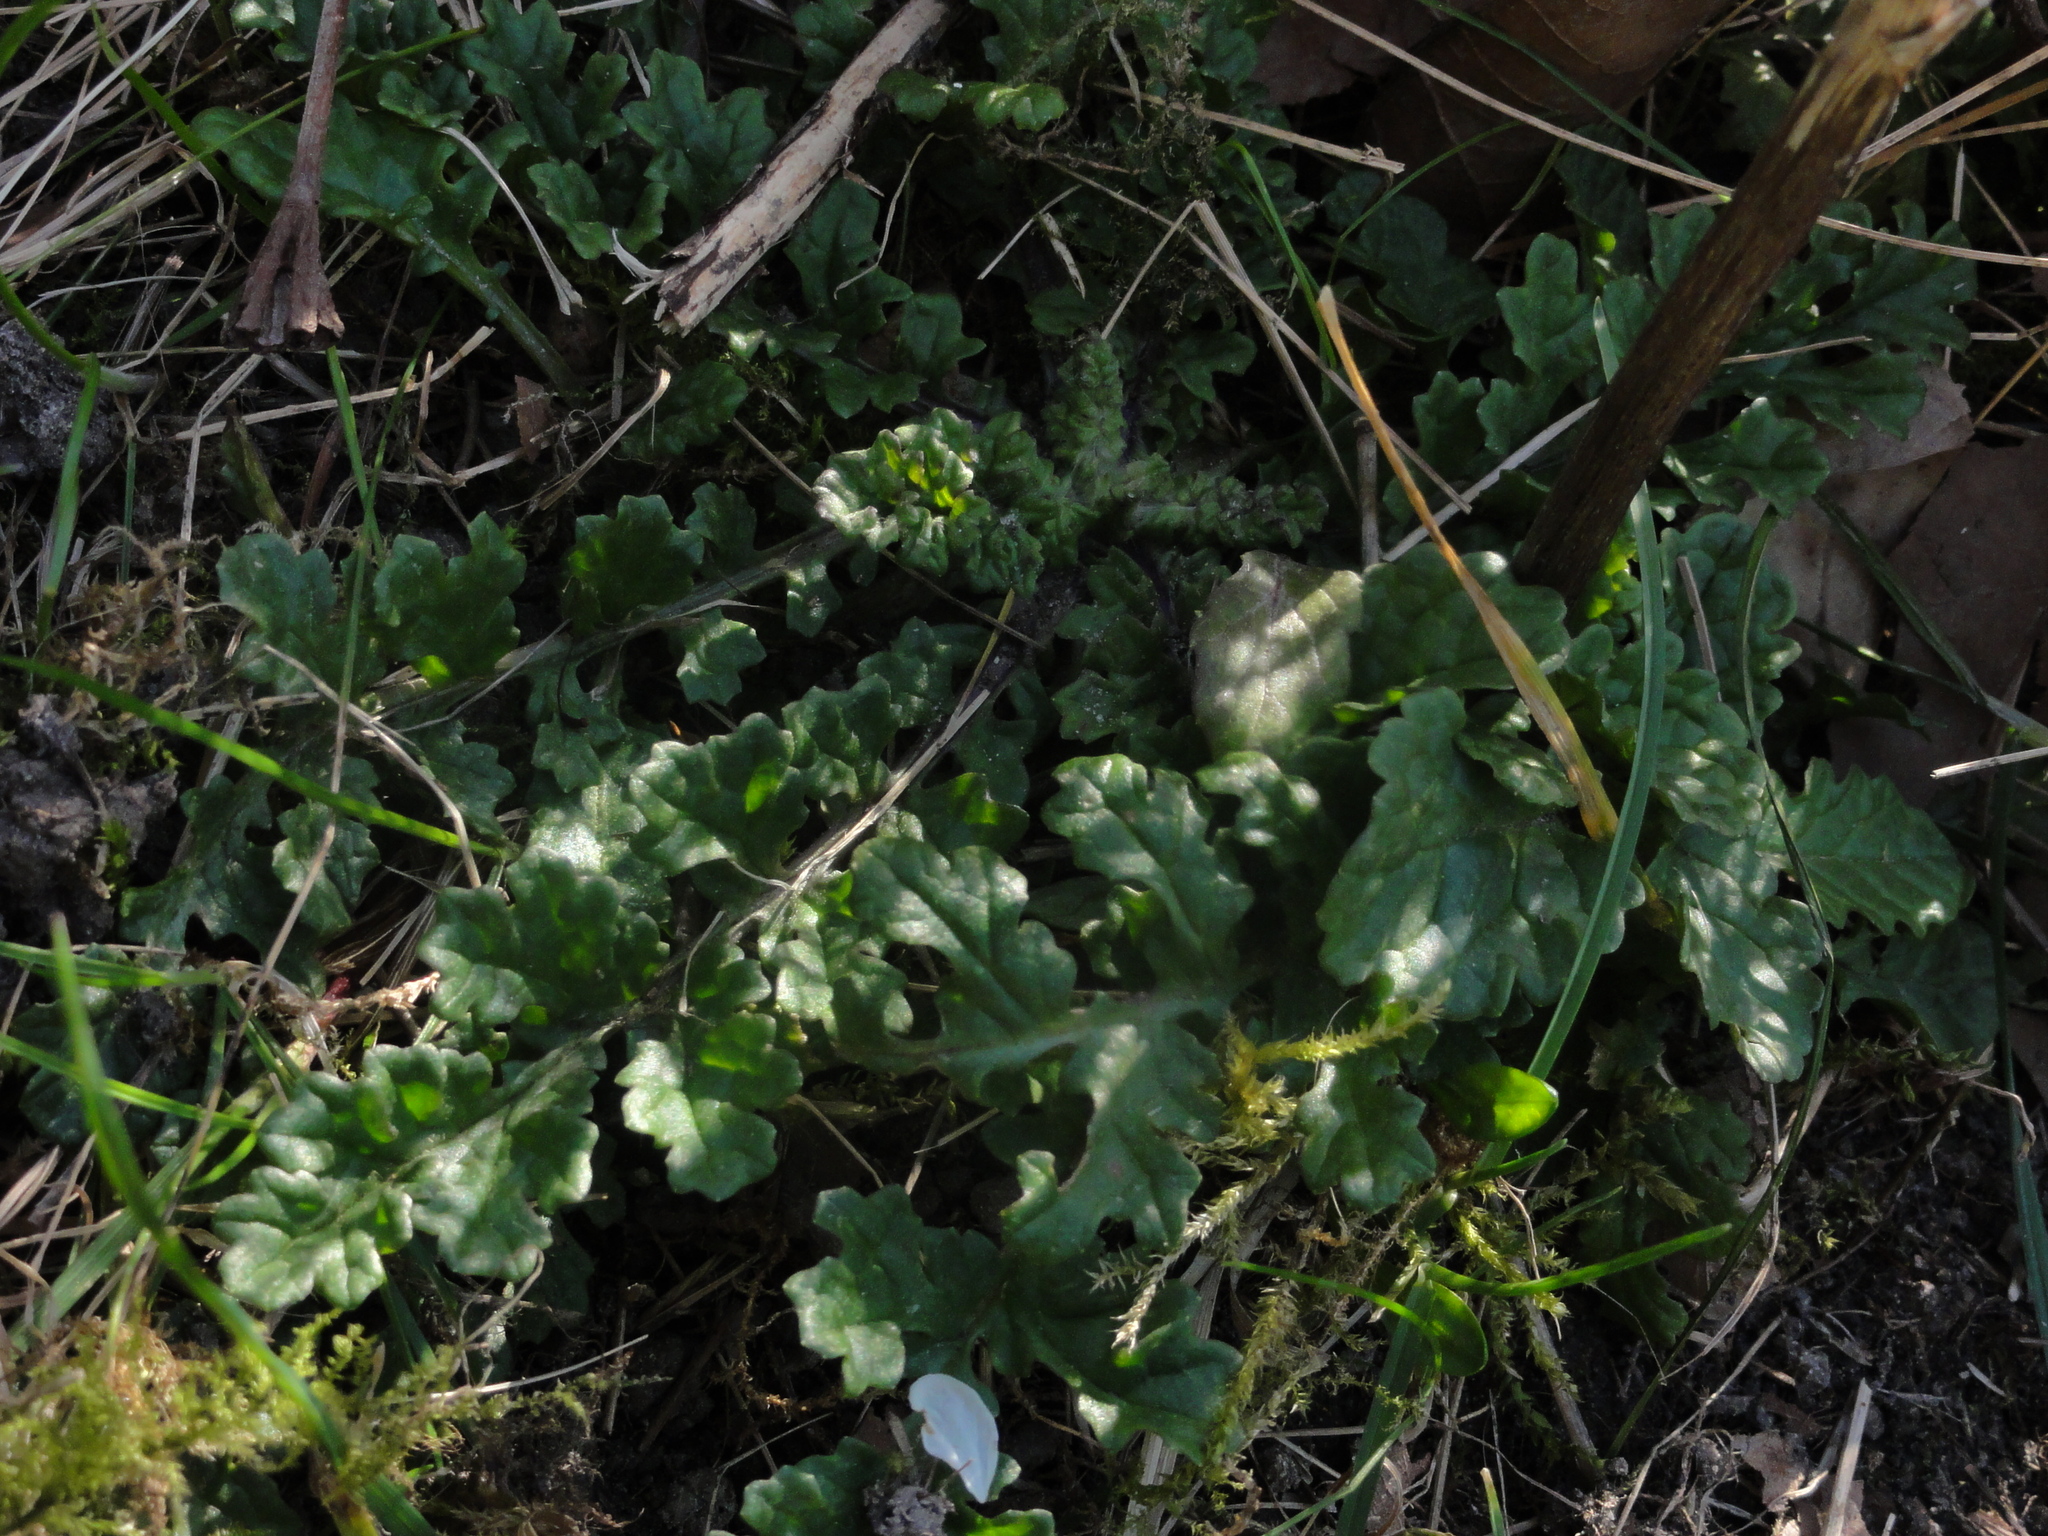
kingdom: Plantae
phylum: Tracheophyta
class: Magnoliopsida
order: Asterales
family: Asteraceae
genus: Jacobaea
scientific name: Jacobaea vulgaris
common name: Stinking willie
